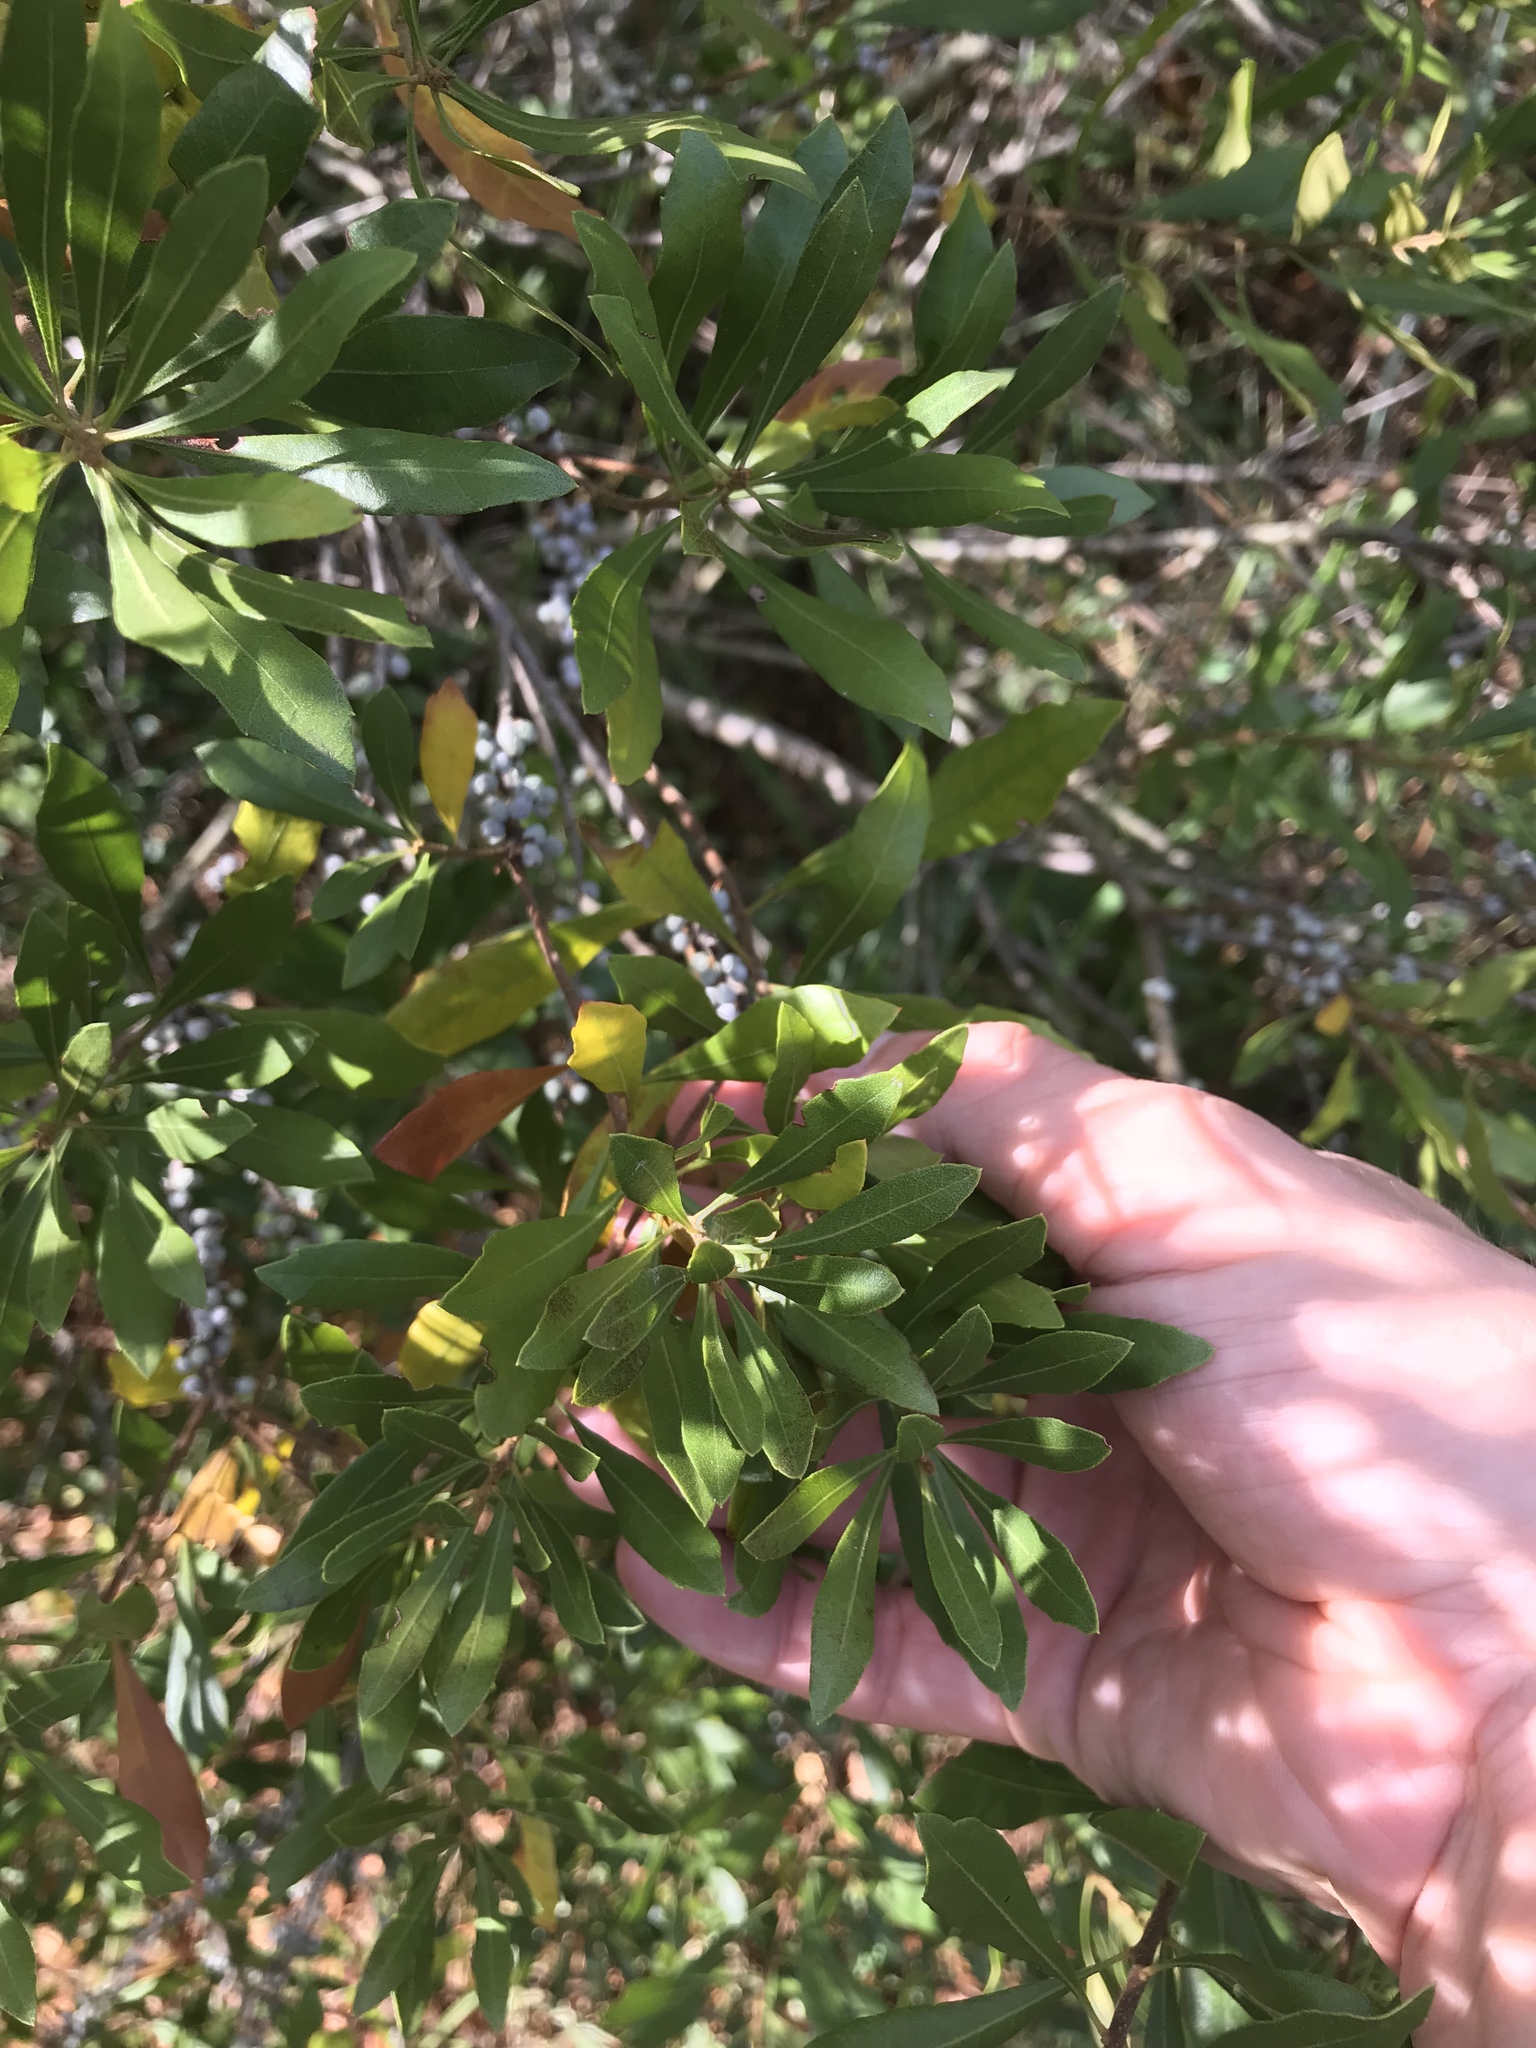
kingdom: Plantae
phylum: Tracheophyta
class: Magnoliopsida
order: Fagales
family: Myricaceae
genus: Morella
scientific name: Morella cerifera
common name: Wax myrtle
